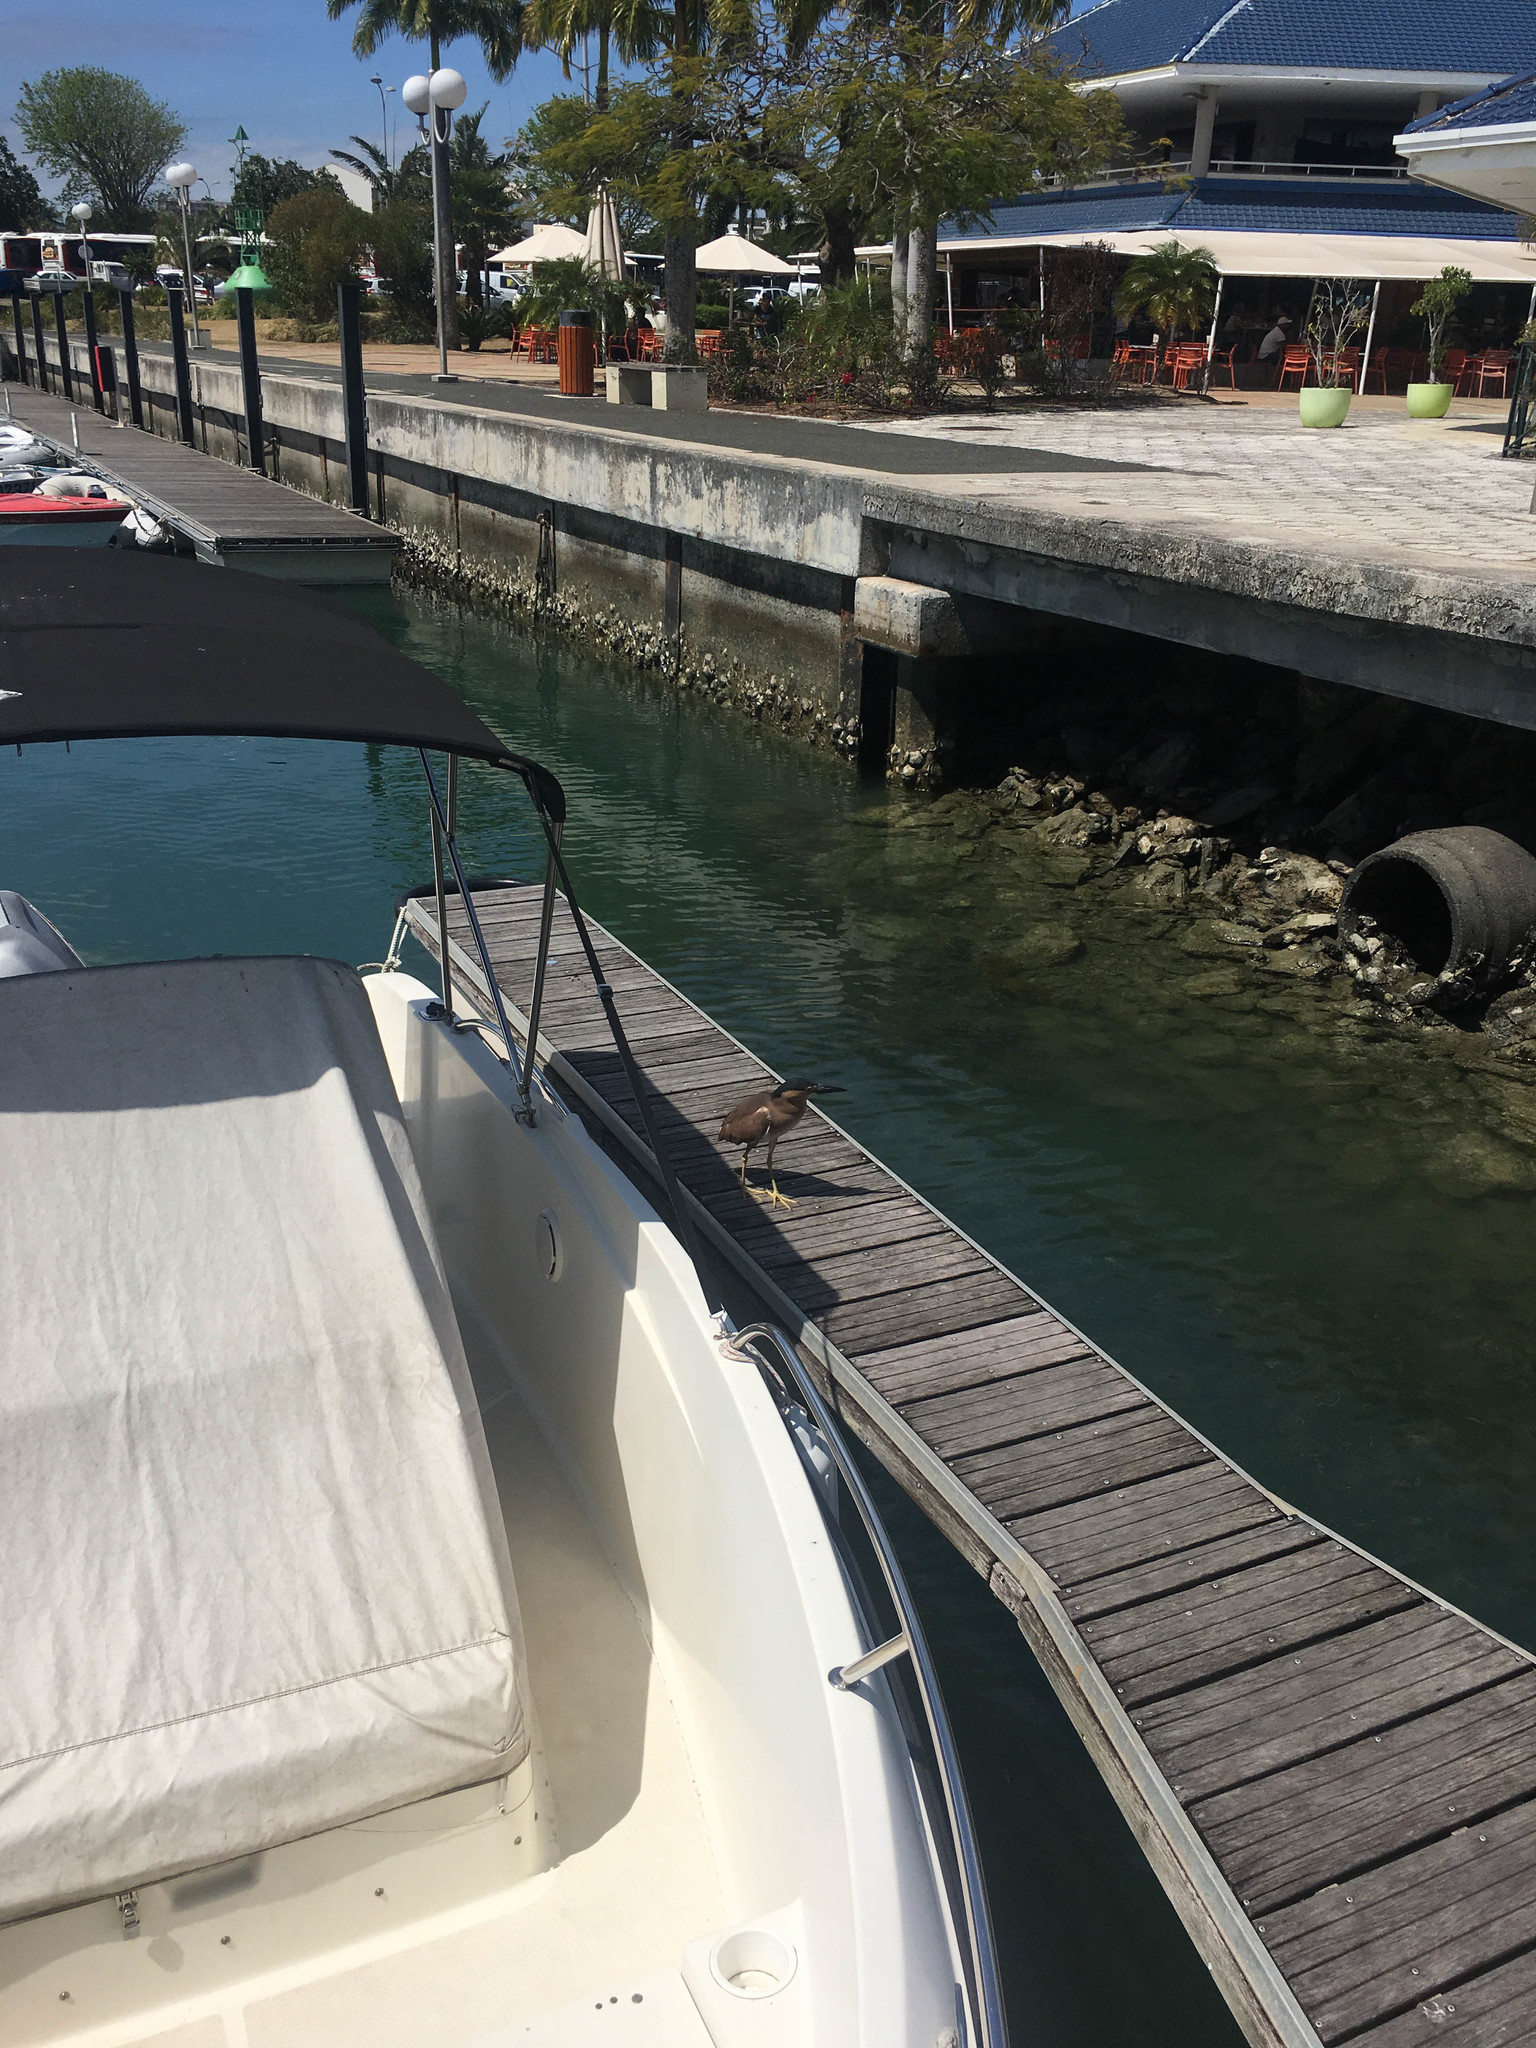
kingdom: Animalia
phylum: Chordata
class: Aves
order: Pelecaniformes
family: Ardeidae
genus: Nycticorax
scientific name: Nycticorax caledonicus
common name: Rufous night-heron
